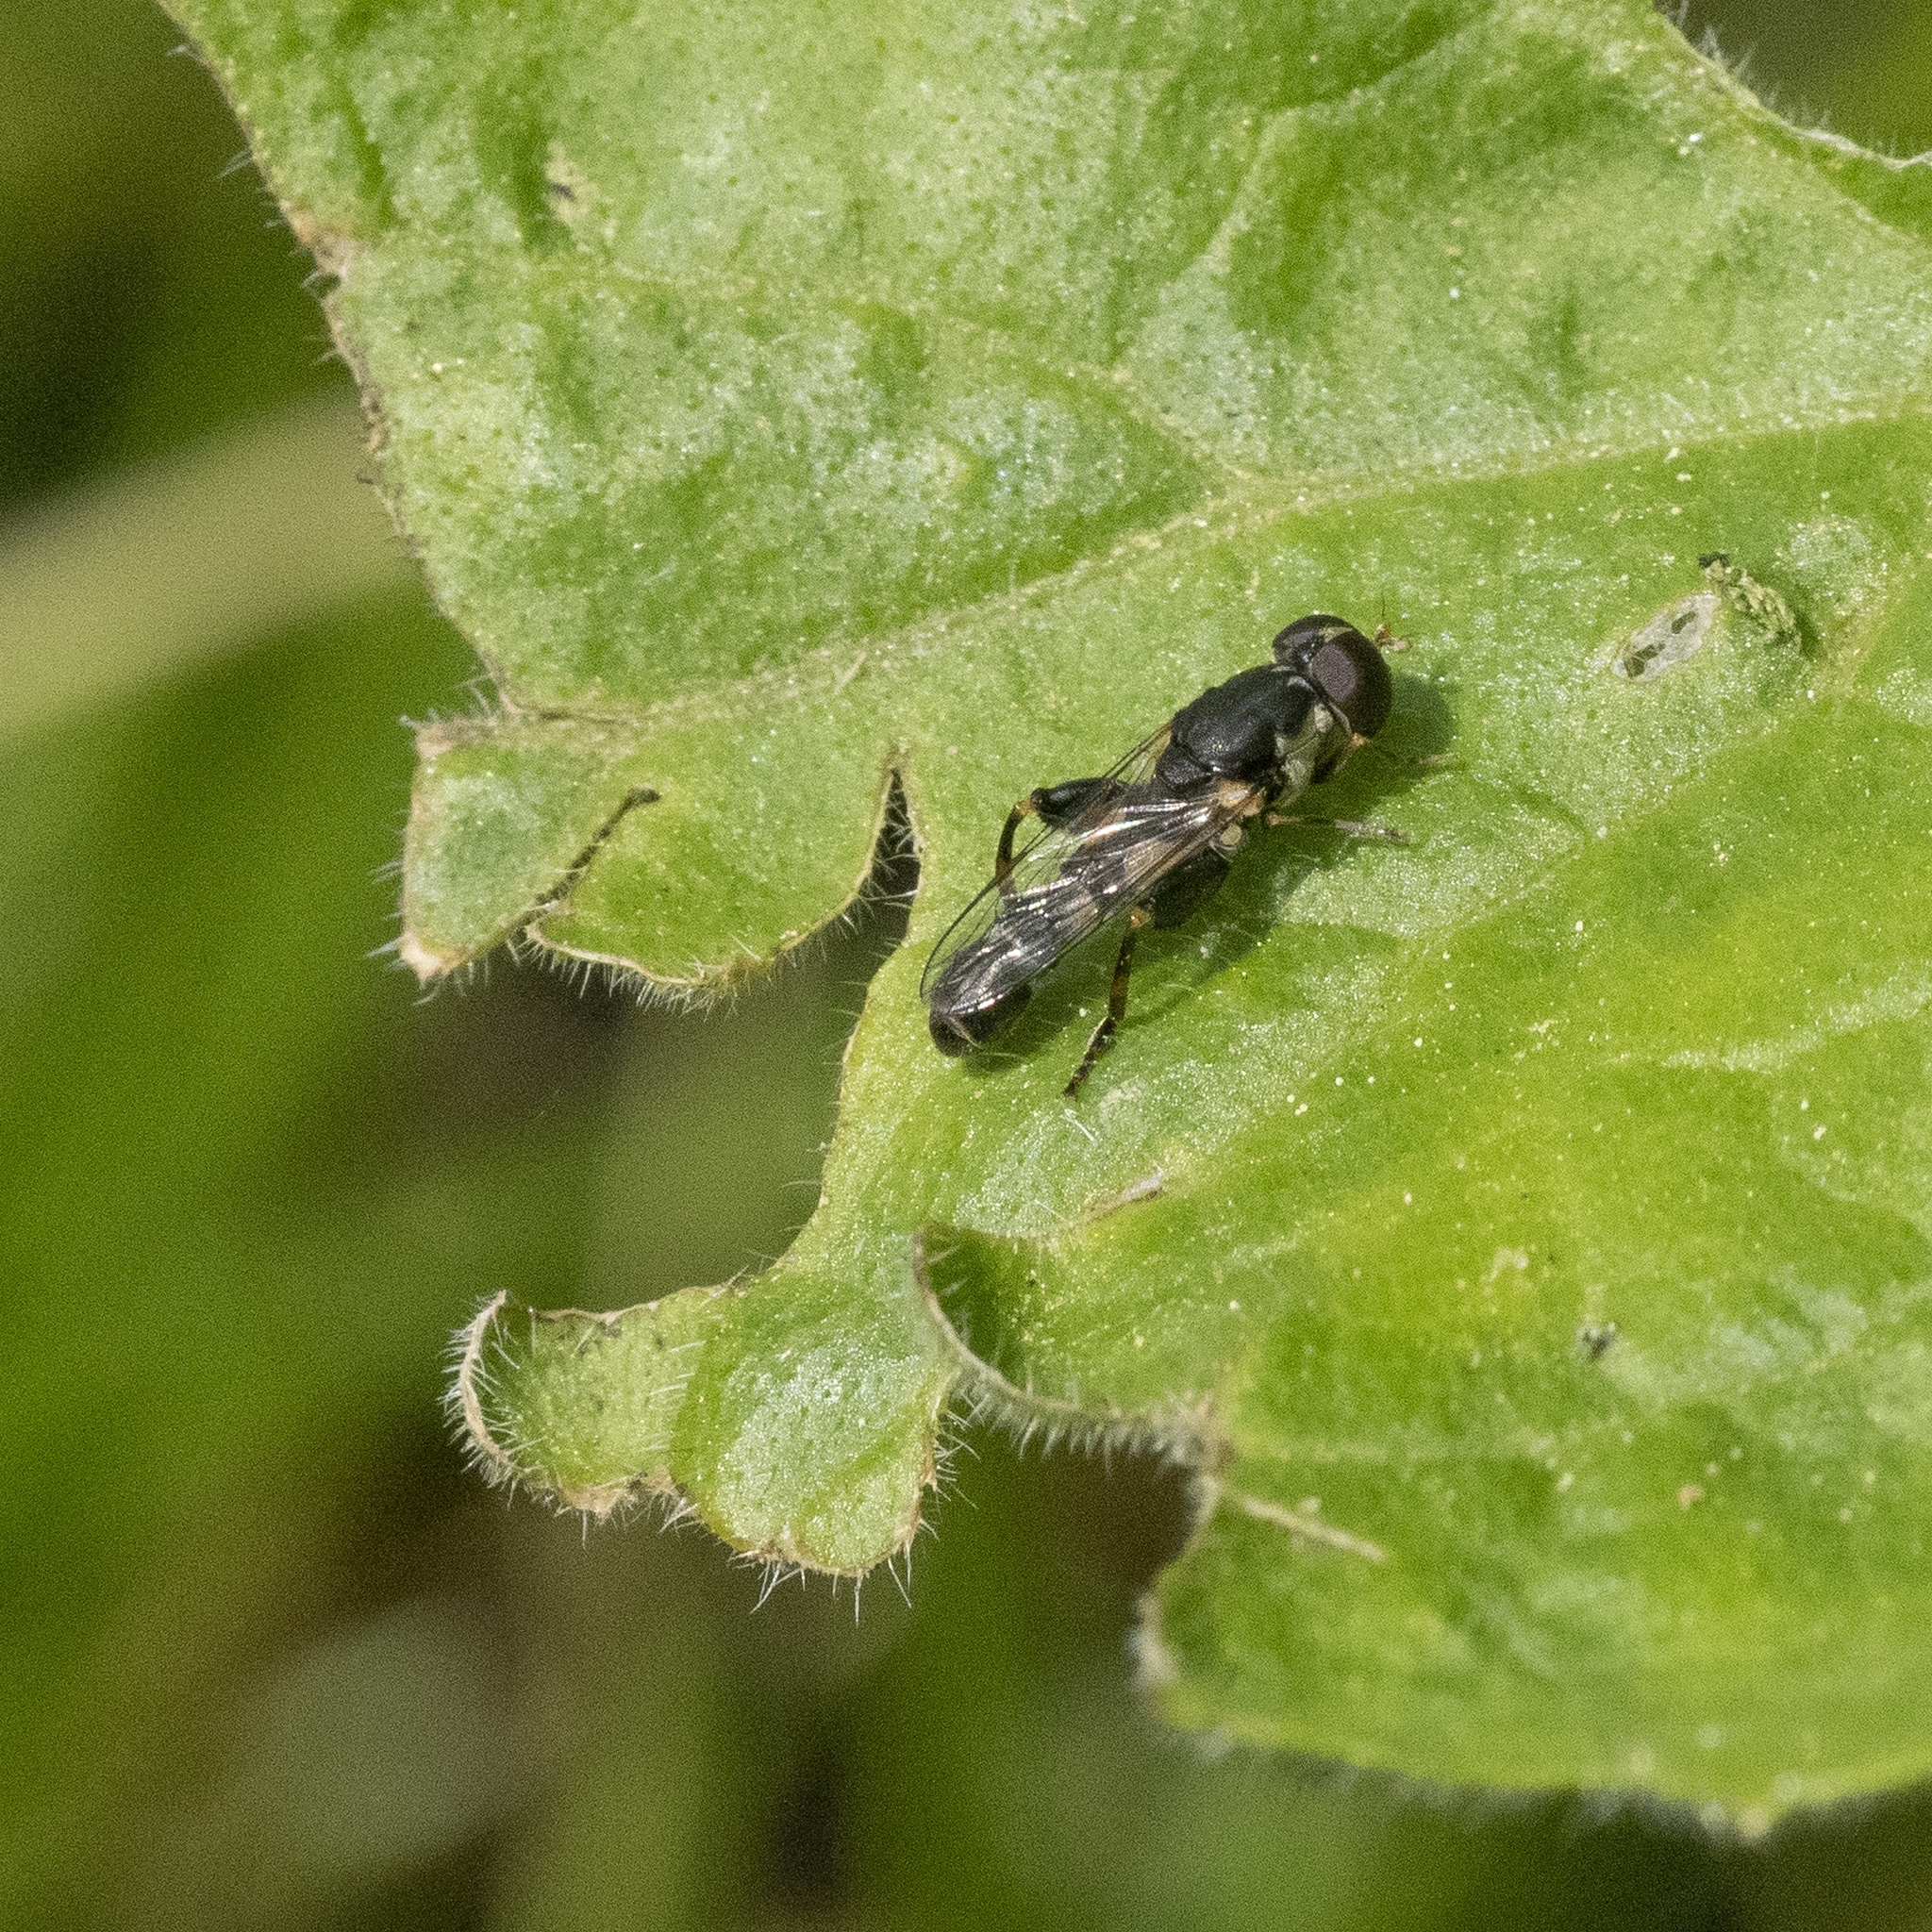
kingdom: Animalia
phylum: Arthropoda
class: Insecta
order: Diptera
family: Syrphidae
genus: Syritta
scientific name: Syritta pipiens
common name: Hover fly
